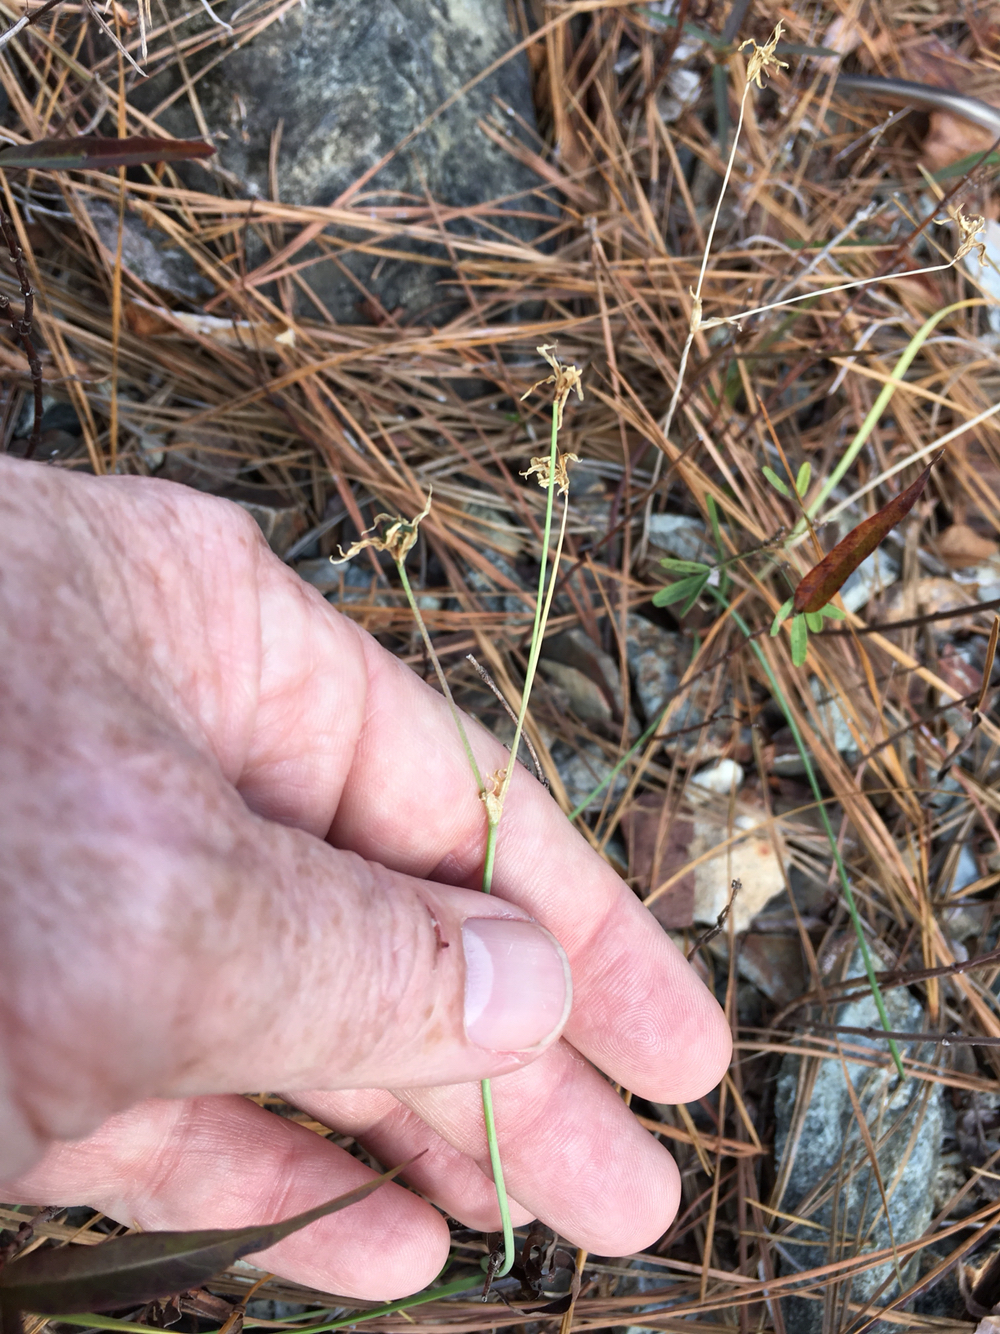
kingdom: Plantae
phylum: Tracheophyta
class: Liliopsida
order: Asparagales
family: Amaryllidaceae
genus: Nothoscordum
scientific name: Nothoscordum bivalve
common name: Crow-poison
